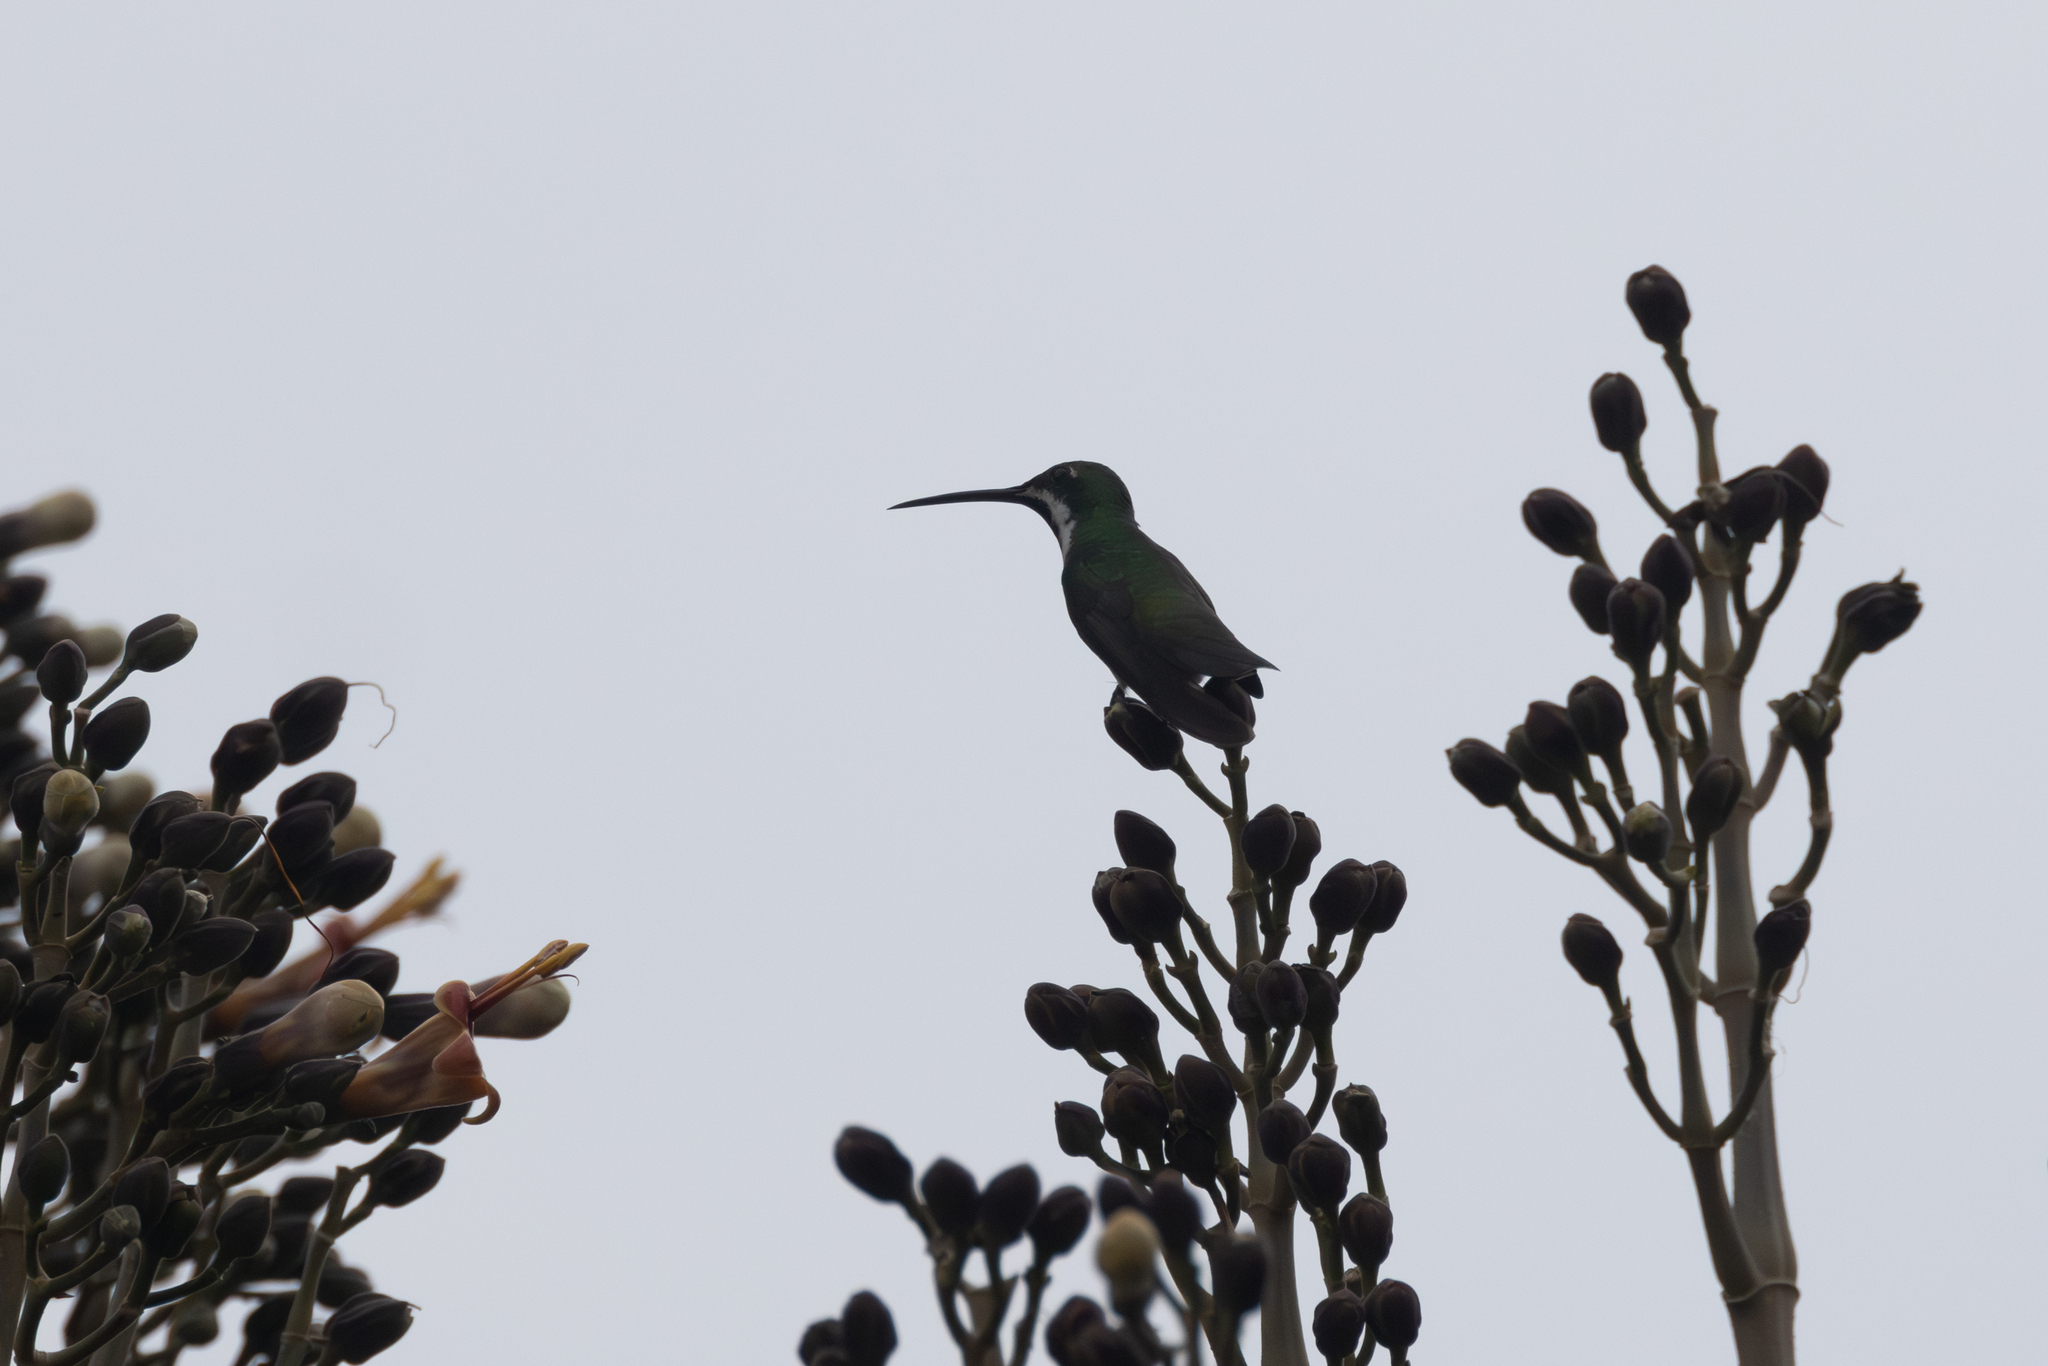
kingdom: Animalia
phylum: Chordata
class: Aves
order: Apodiformes
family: Trochilidae
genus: Anthracothorax
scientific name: Anthracothorax nigricollis
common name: Black-throated mango
